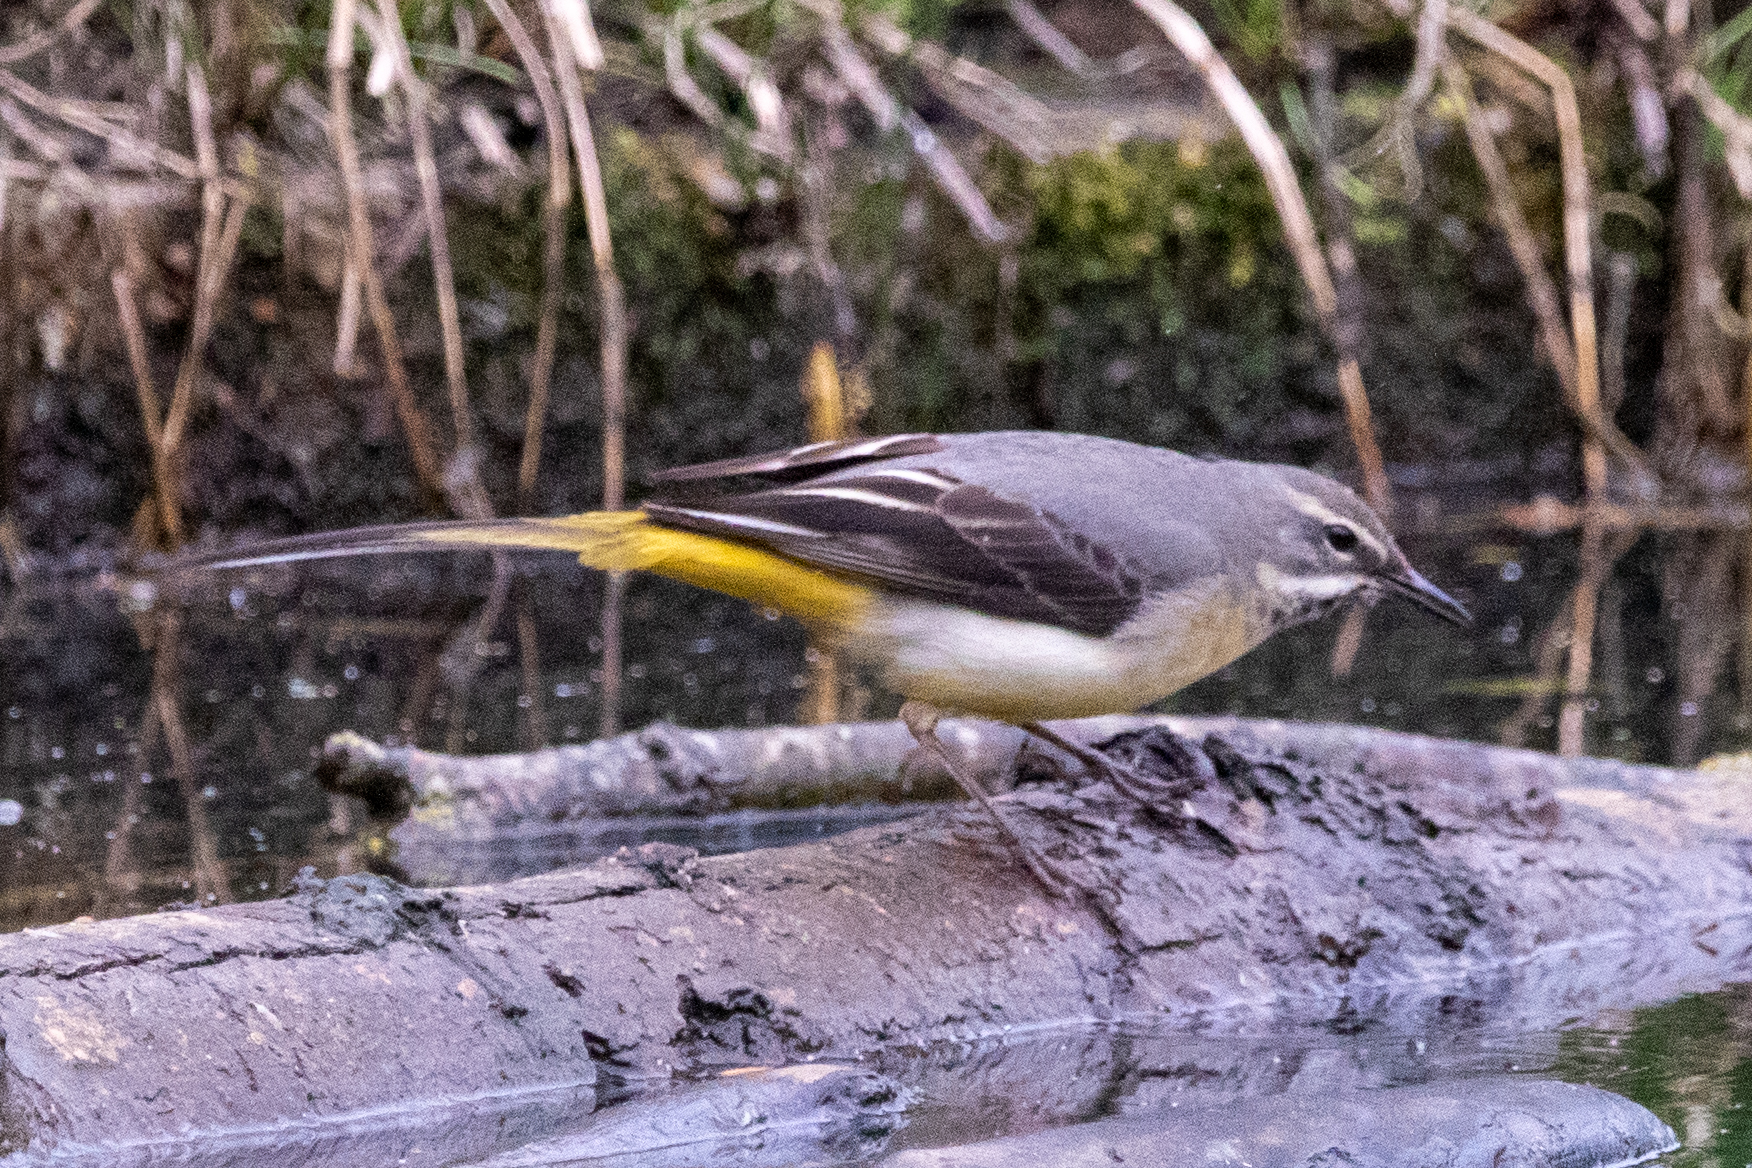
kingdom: Animalia
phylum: Chordata
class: Aves
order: Passeriformes
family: Motacillidae
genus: Motacilla
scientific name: Motacilla cinerea
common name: Grey wagtail
